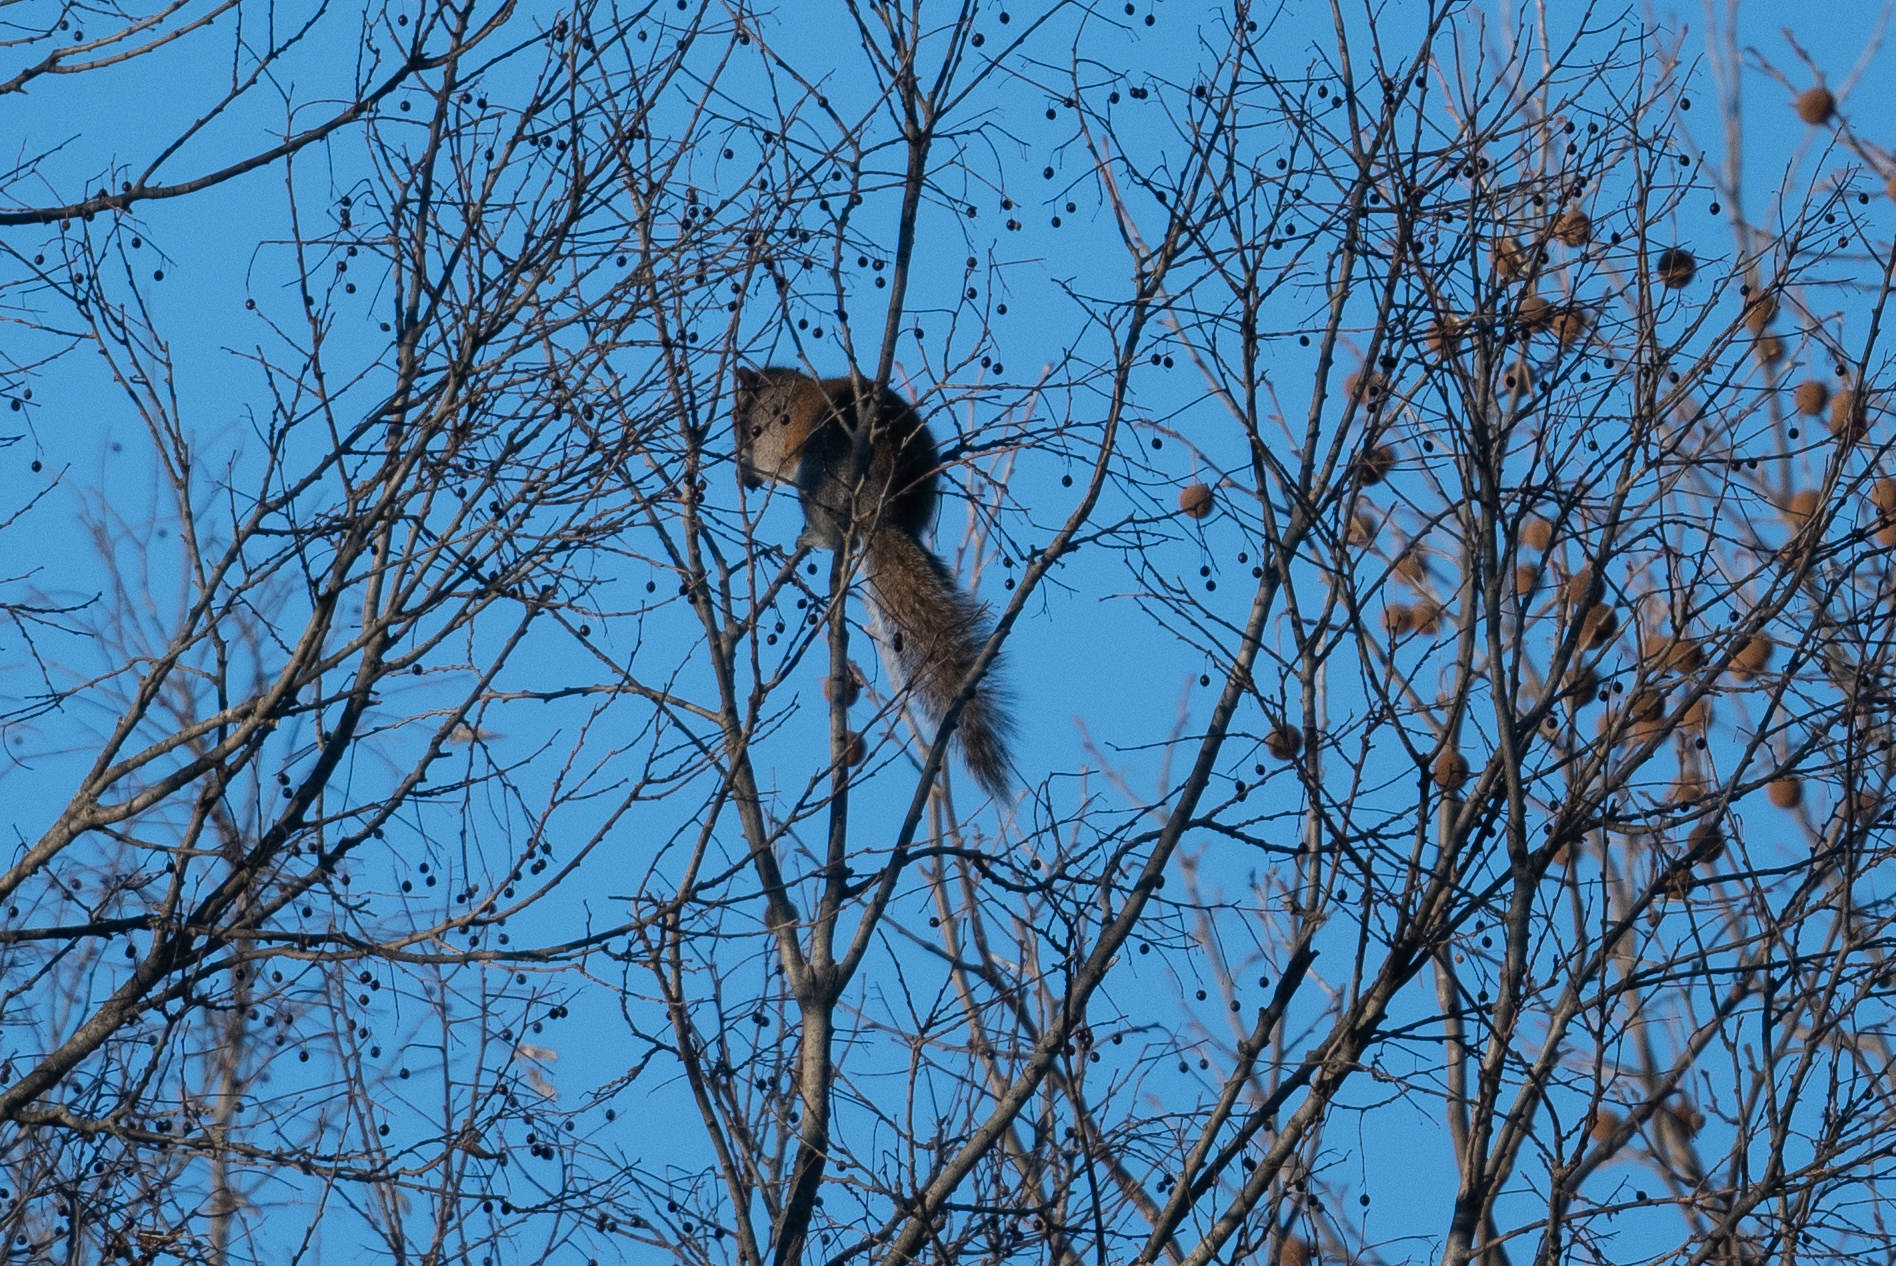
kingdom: Animalia
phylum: Chordata
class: Mammalia
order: Rodentia
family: Sciuridae
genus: Sciurus
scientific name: Sciurus carolinensis
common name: Eastern gray squirrel
